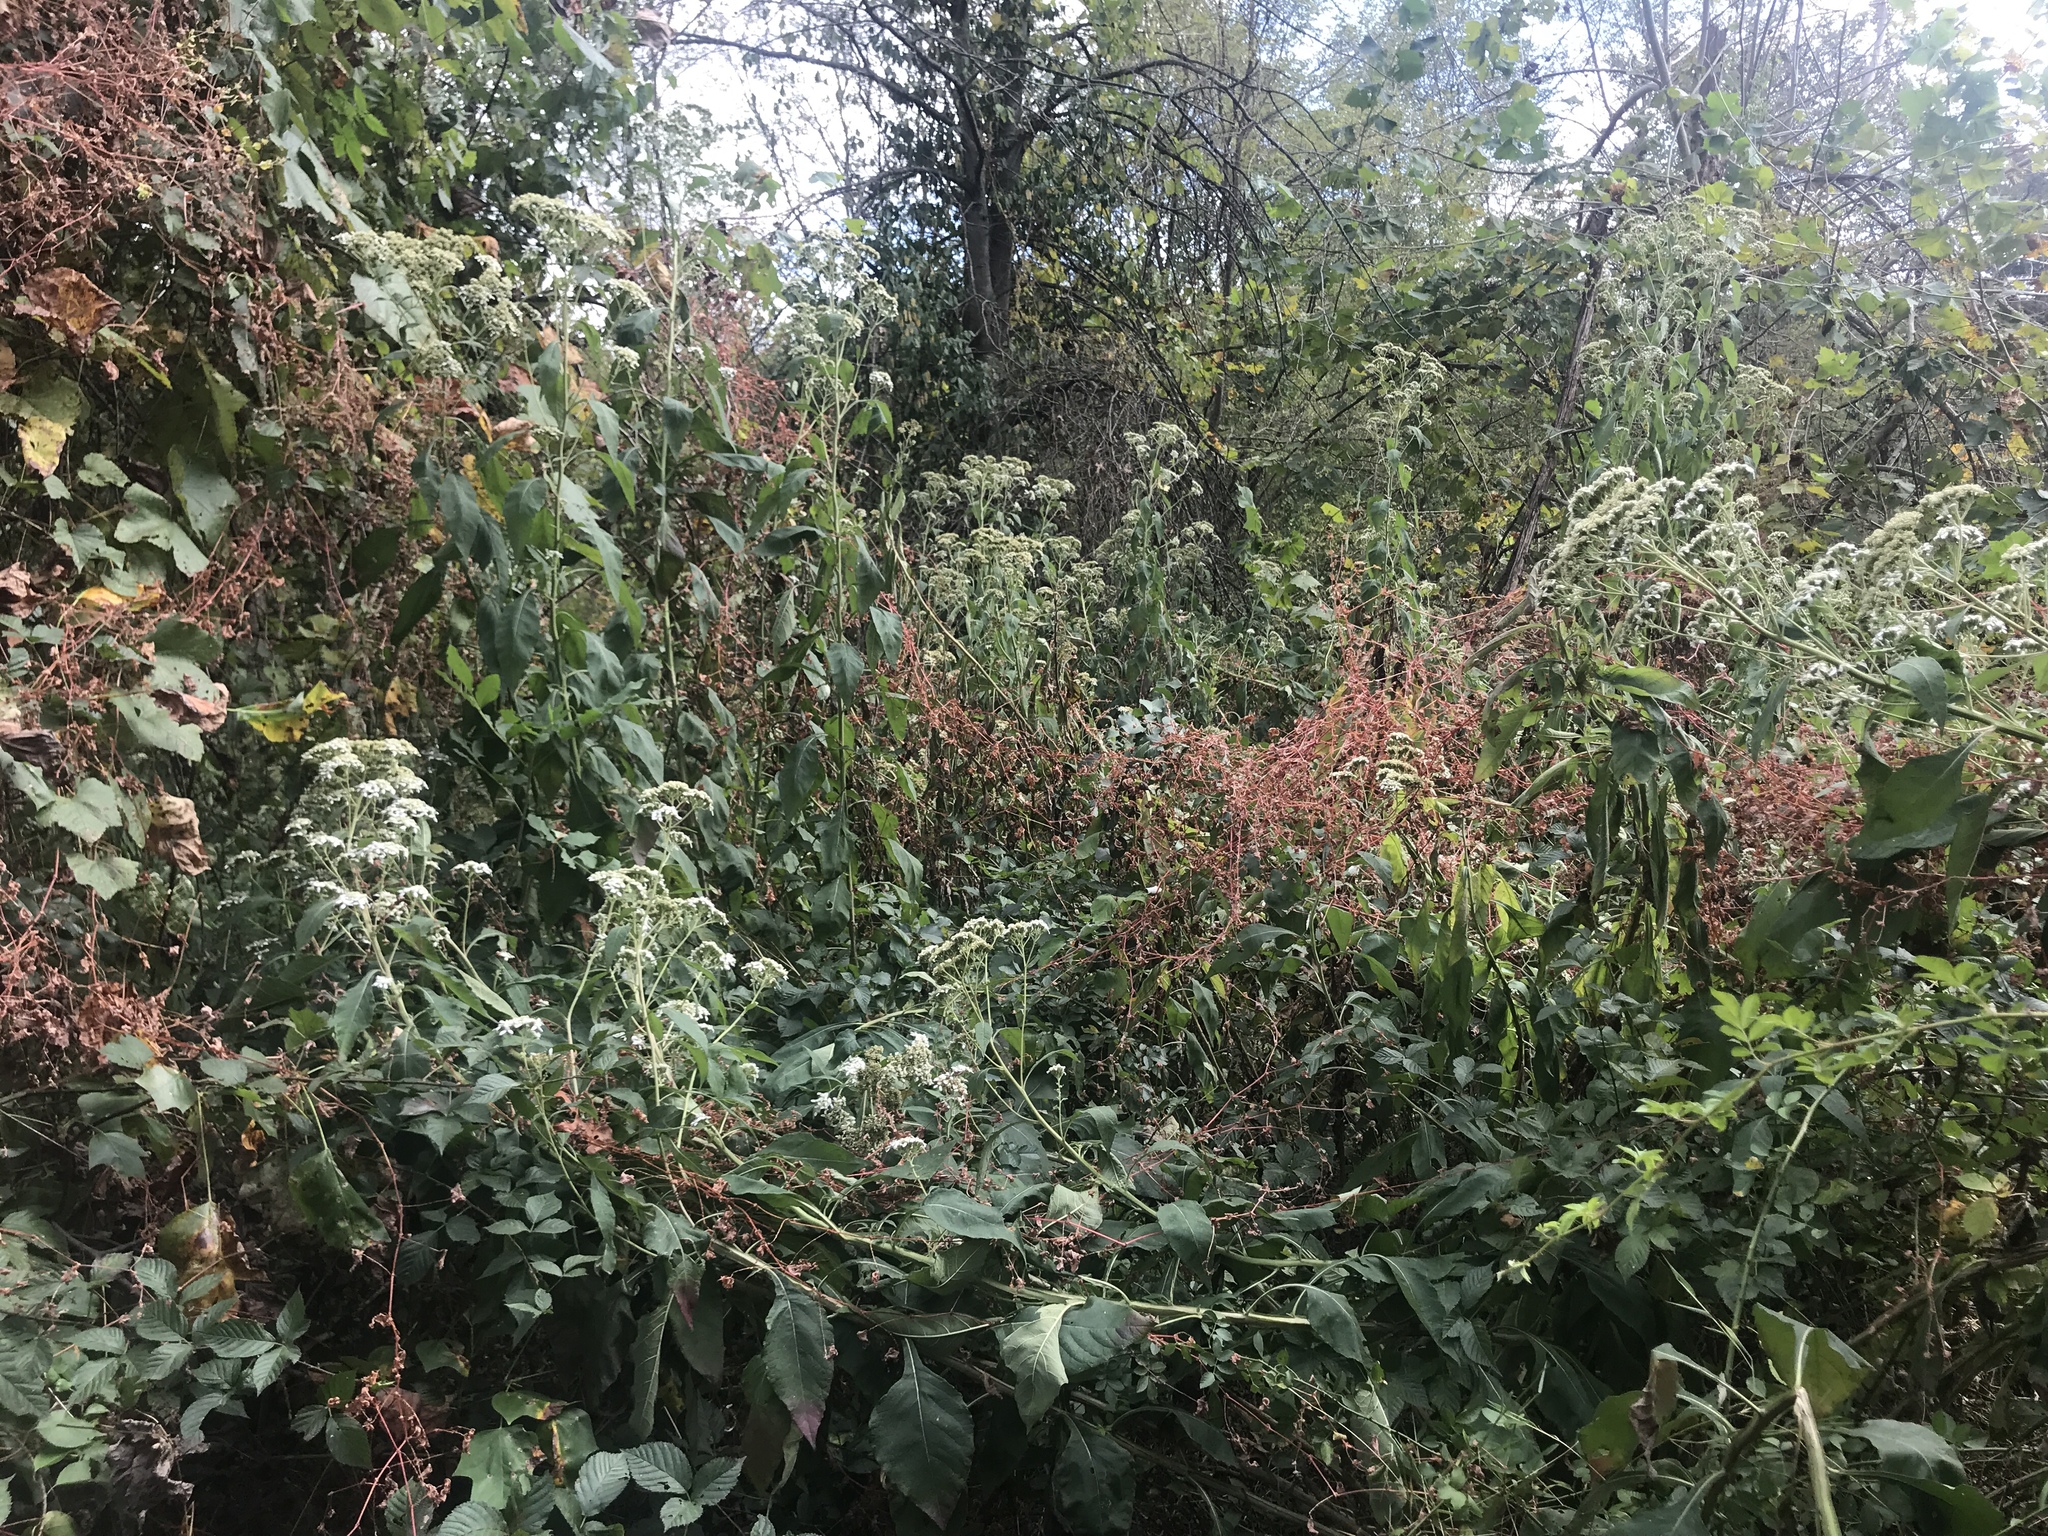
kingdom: Plantae
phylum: Tracheophyta
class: Magnoliopsida
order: Asterales
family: Asteraceae
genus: Verbesina
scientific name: Verbesina virginica
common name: Frostweed
